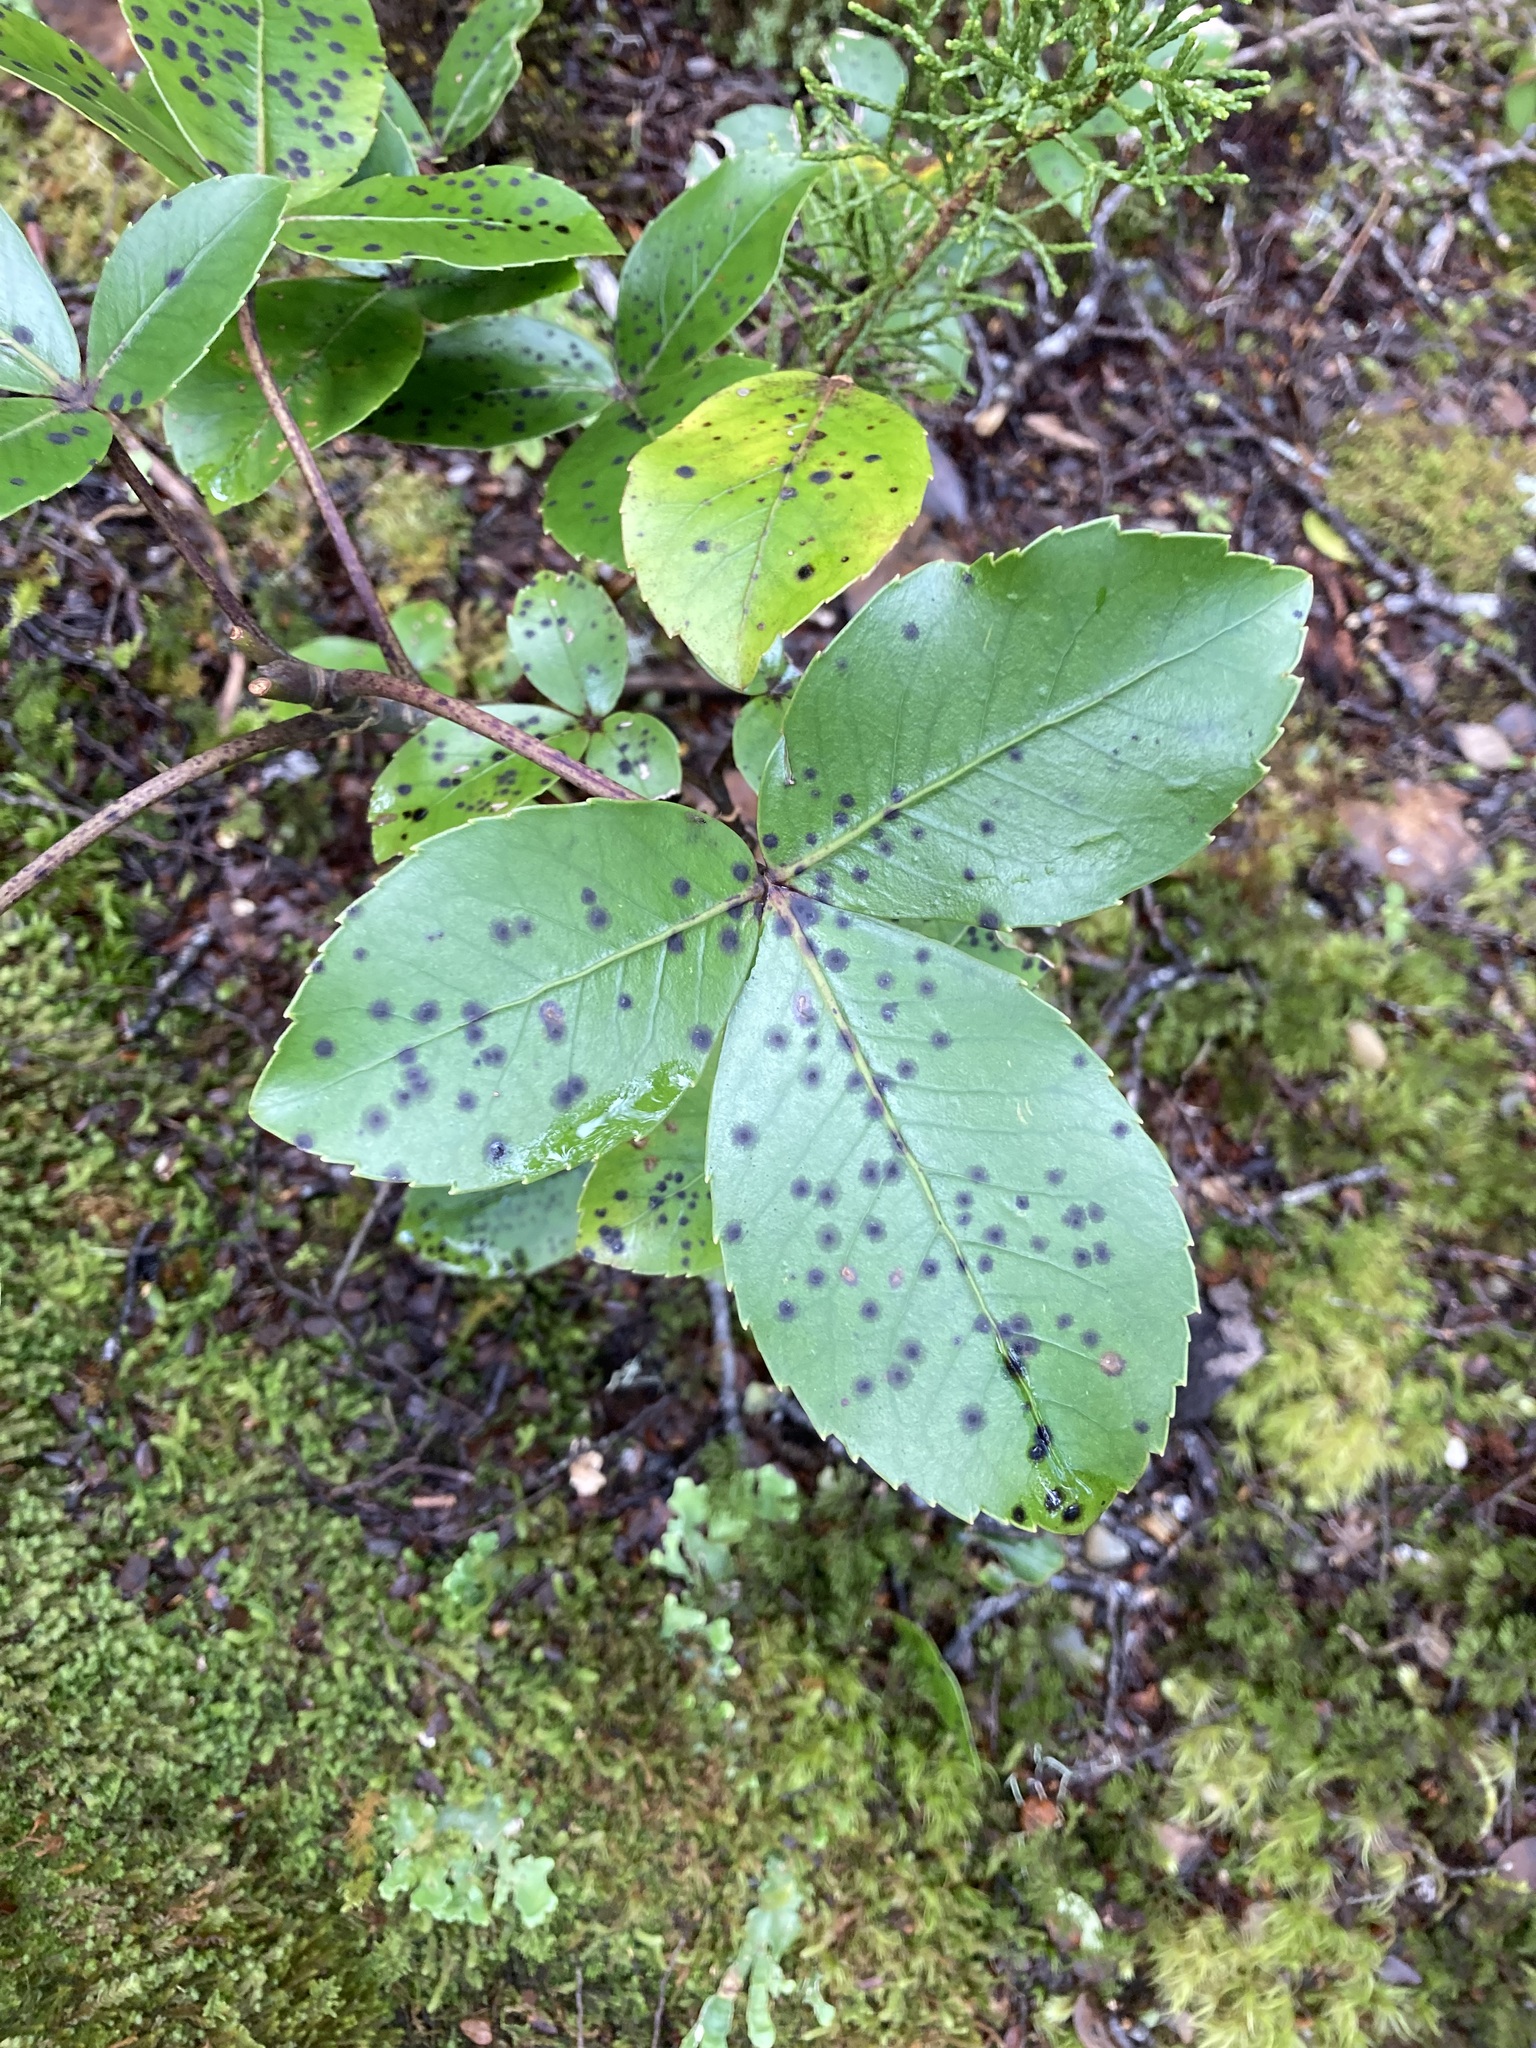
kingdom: Plantae
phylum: Tracheophyta
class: Magnoliopsida
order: Apiales
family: Araliaceae
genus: Neopanax
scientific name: Neopanax colensoi
